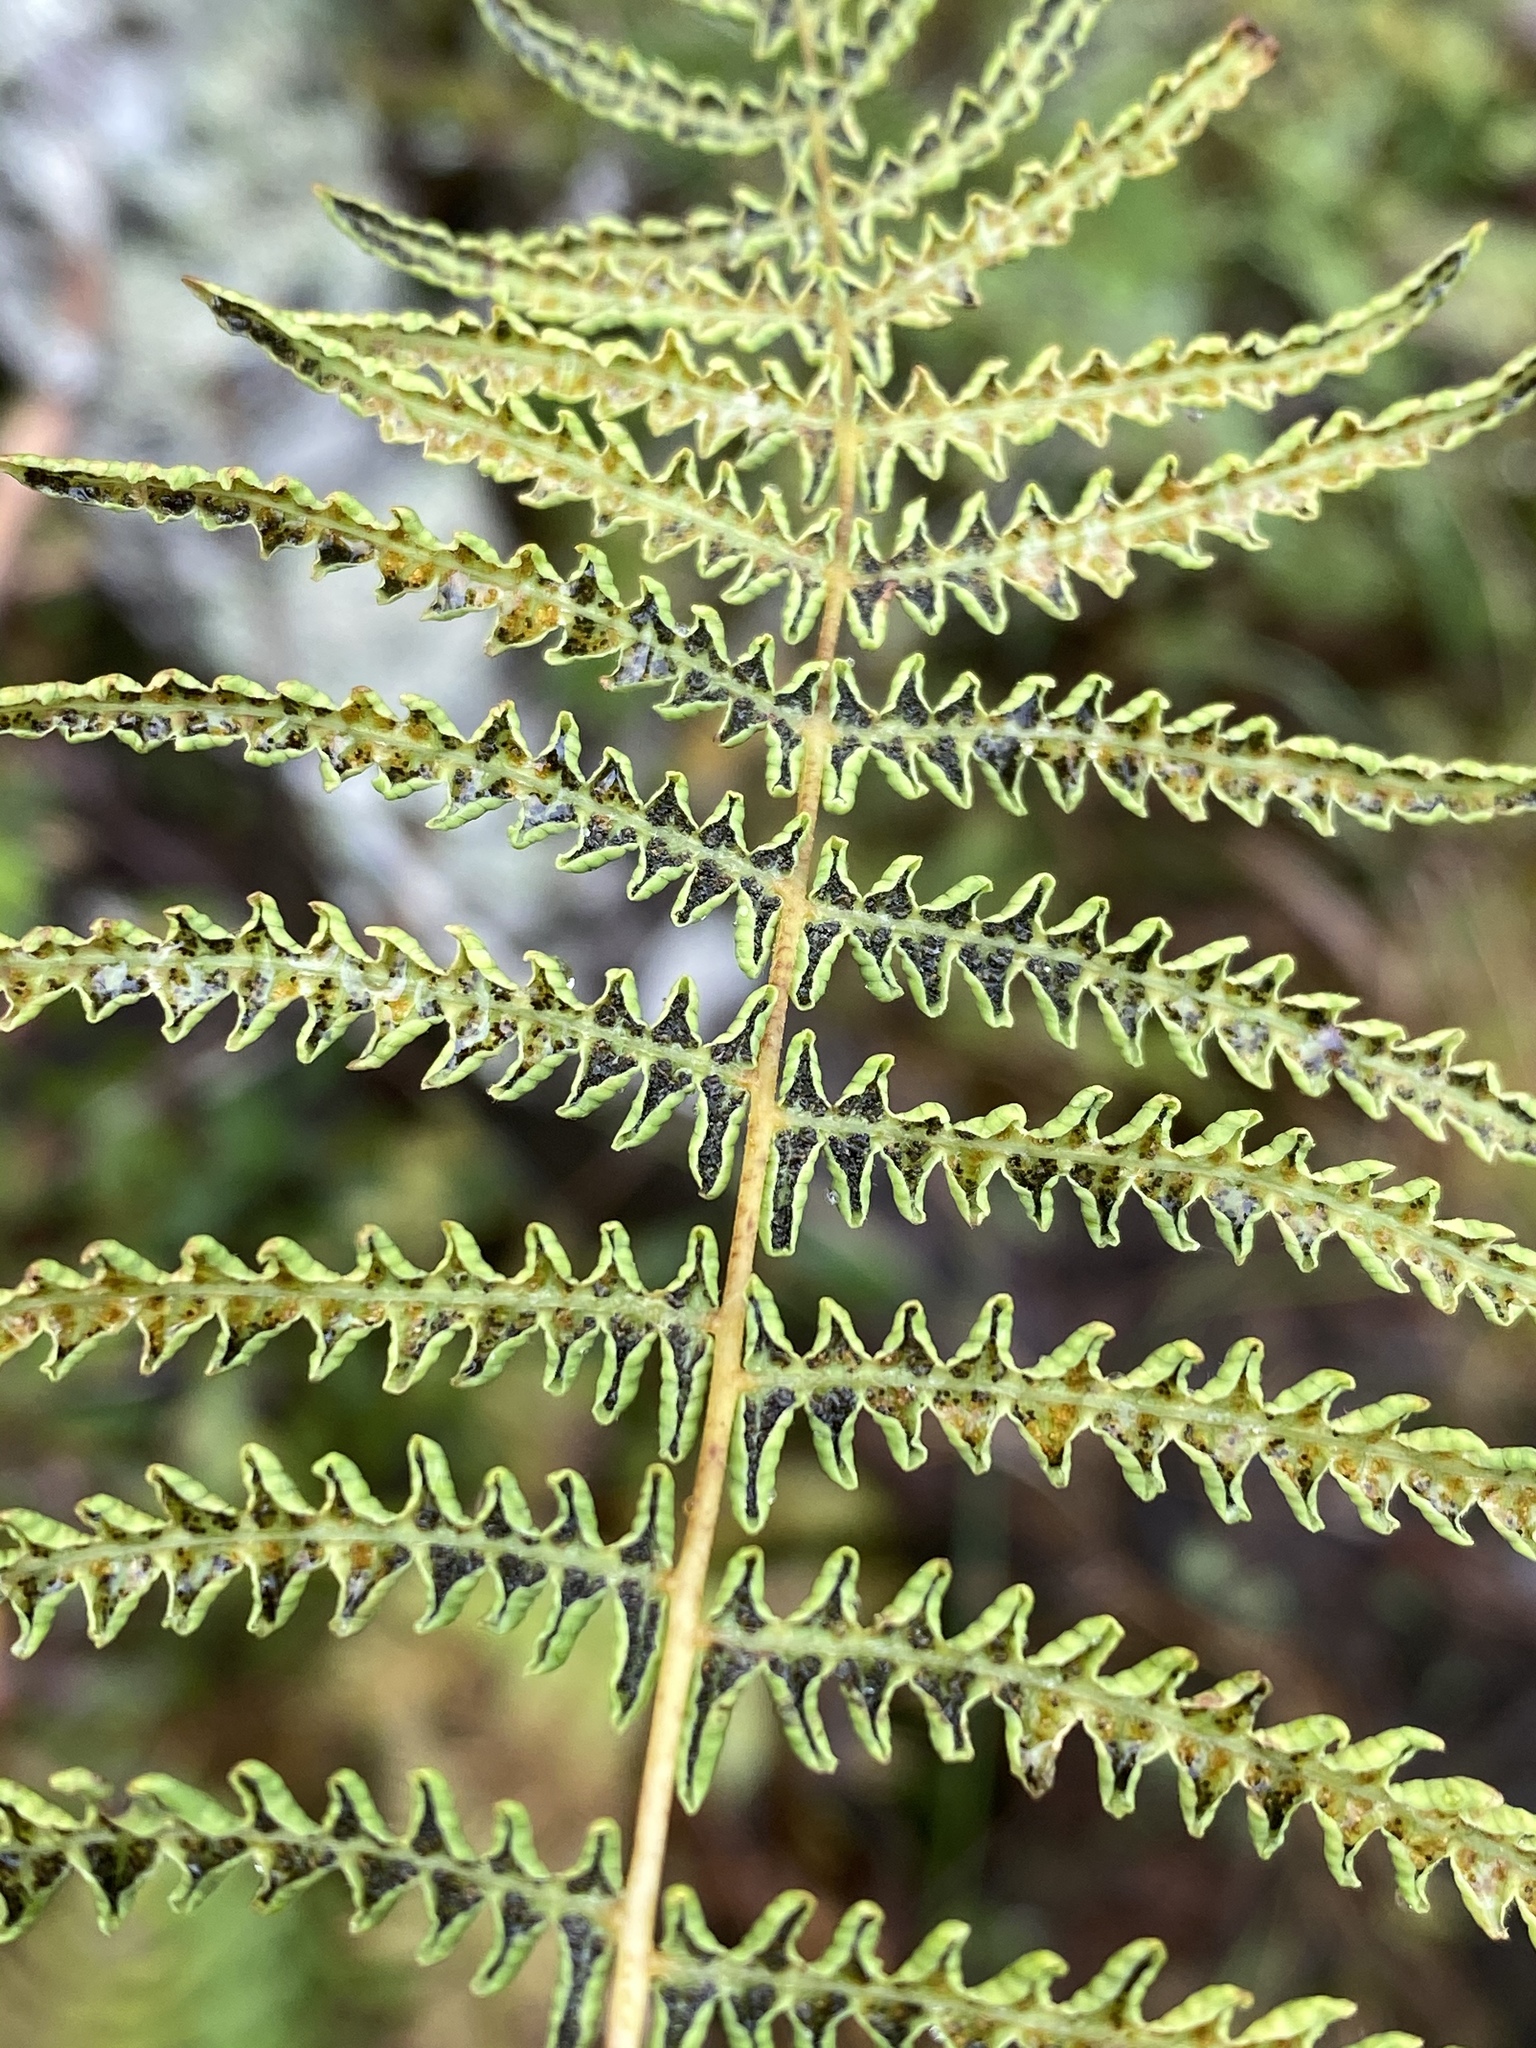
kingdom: Plantae
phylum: Tracheophyta
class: Polypodiopsida
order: Polypodiales
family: Thelypteridaceae
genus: Thelypteris
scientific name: Thelypteris palustris
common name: Marsh fern
